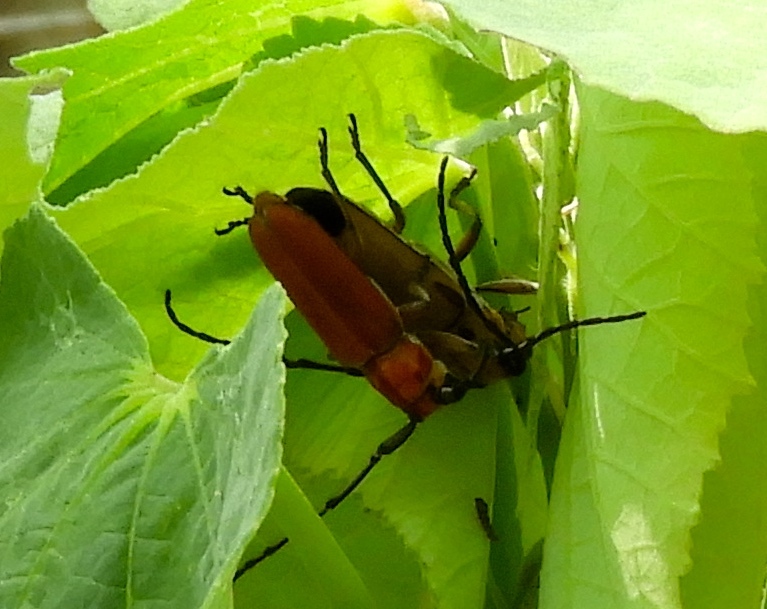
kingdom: Animalia
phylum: Arthropoda
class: Insecta
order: Coleoptera
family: Cerambycidae
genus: Essostrutha
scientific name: Essostrutha laeta
